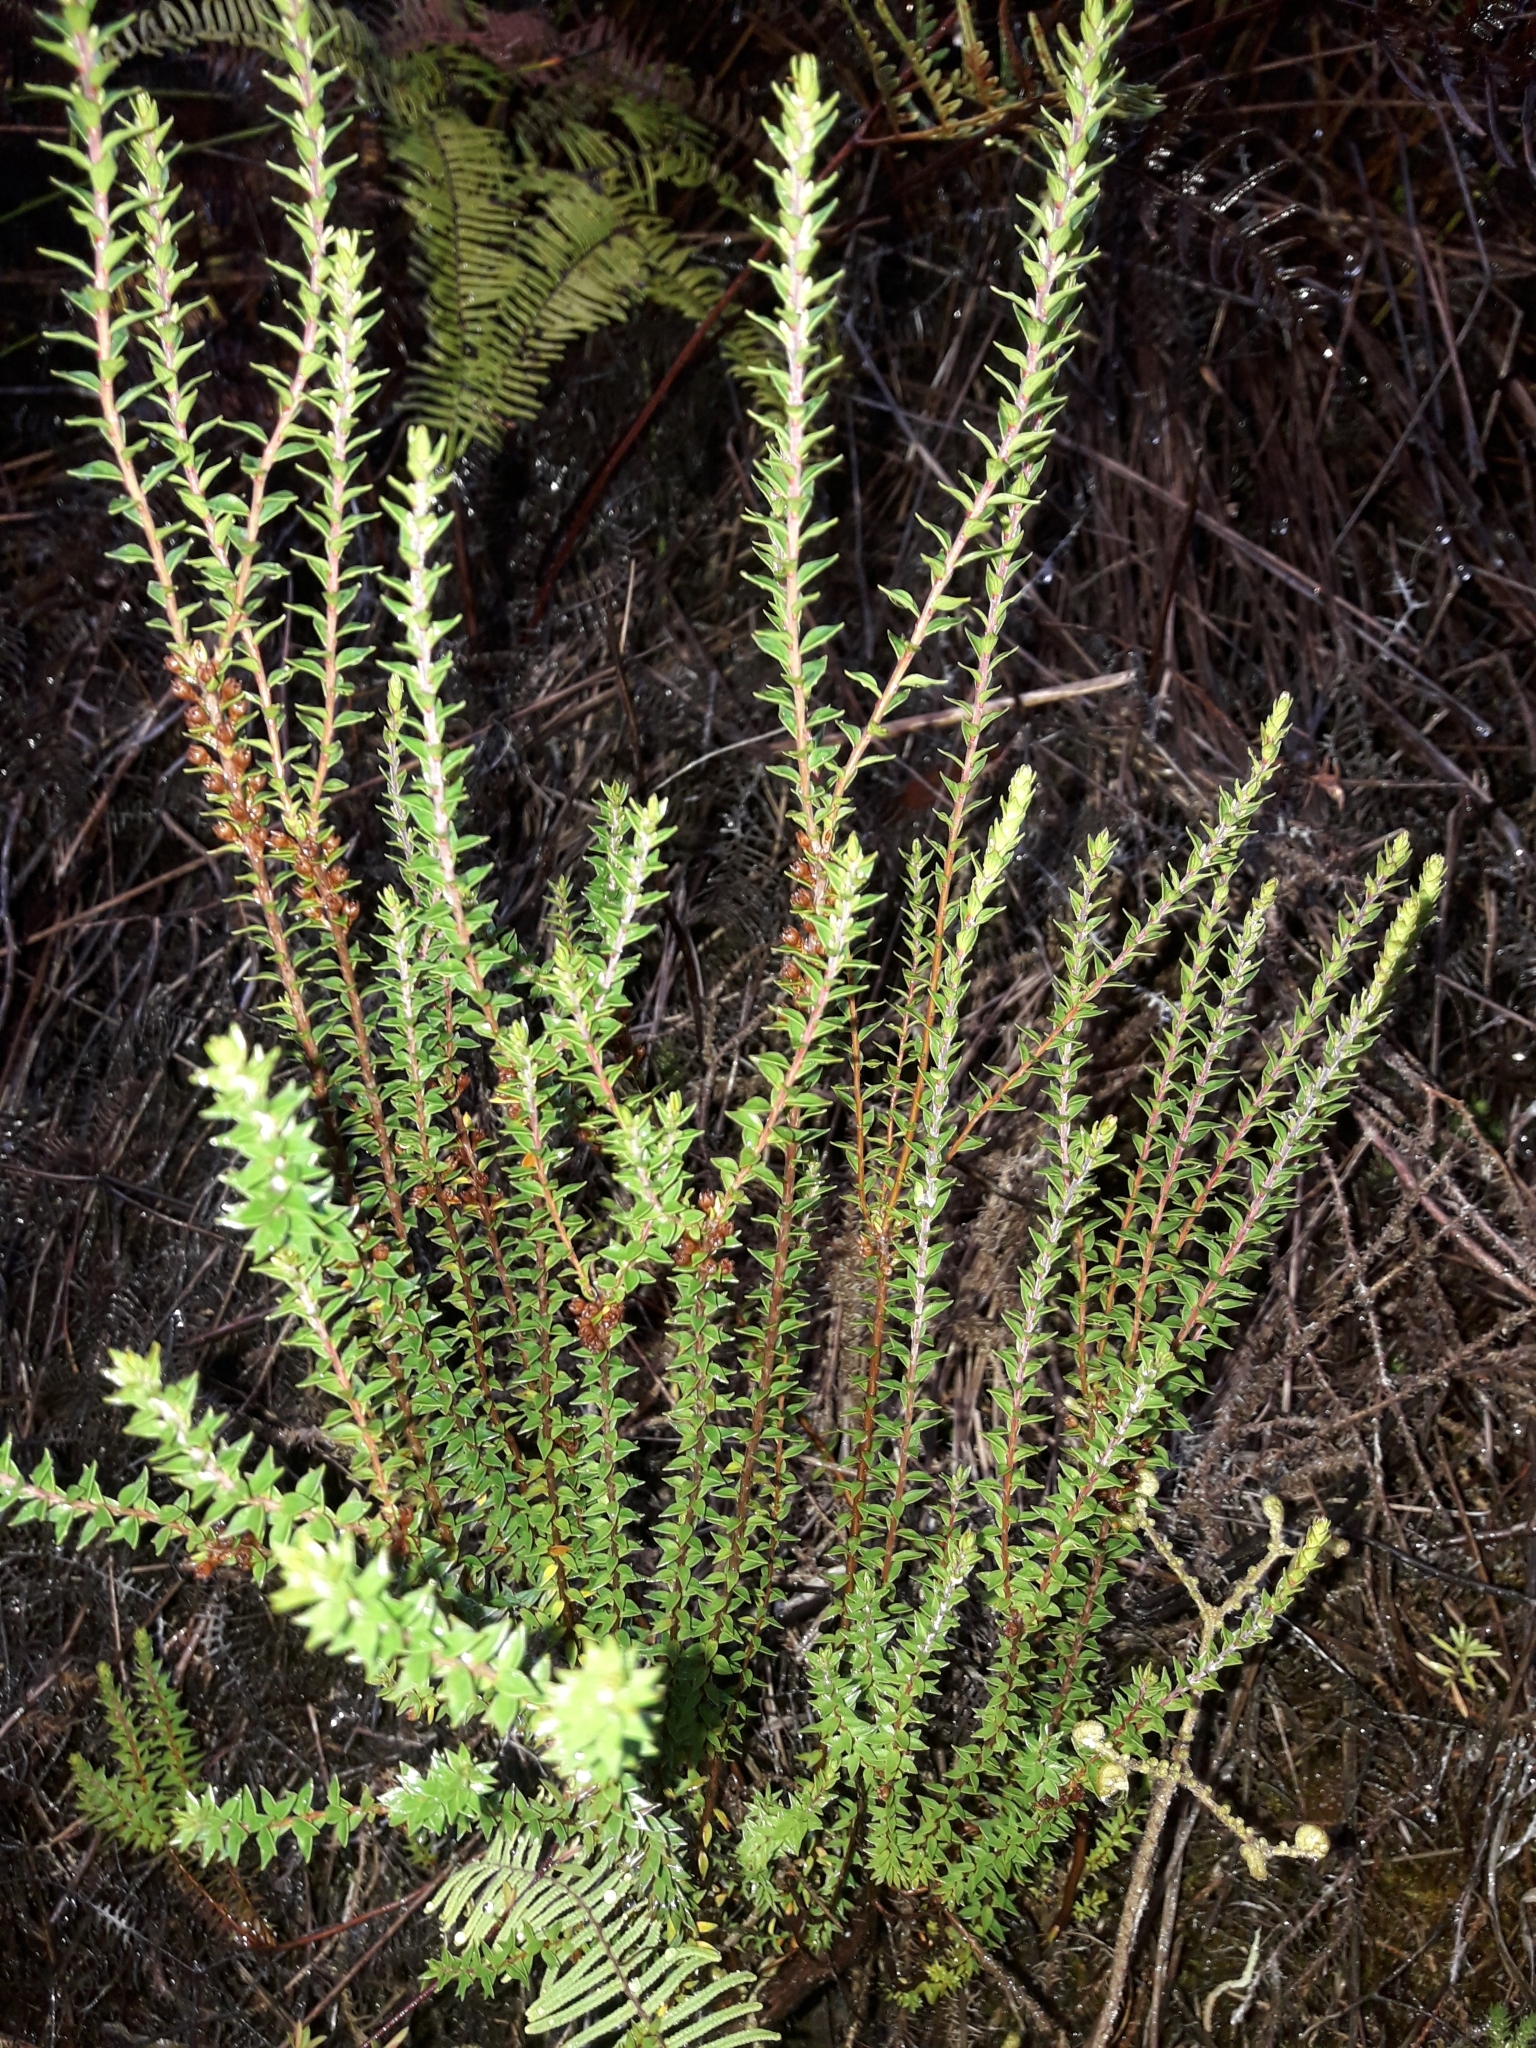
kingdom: Plantae
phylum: Tracheophyta
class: Magnoliopsida
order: Ericales
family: Ericaceae
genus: Epacris
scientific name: Epacris pauciflora
